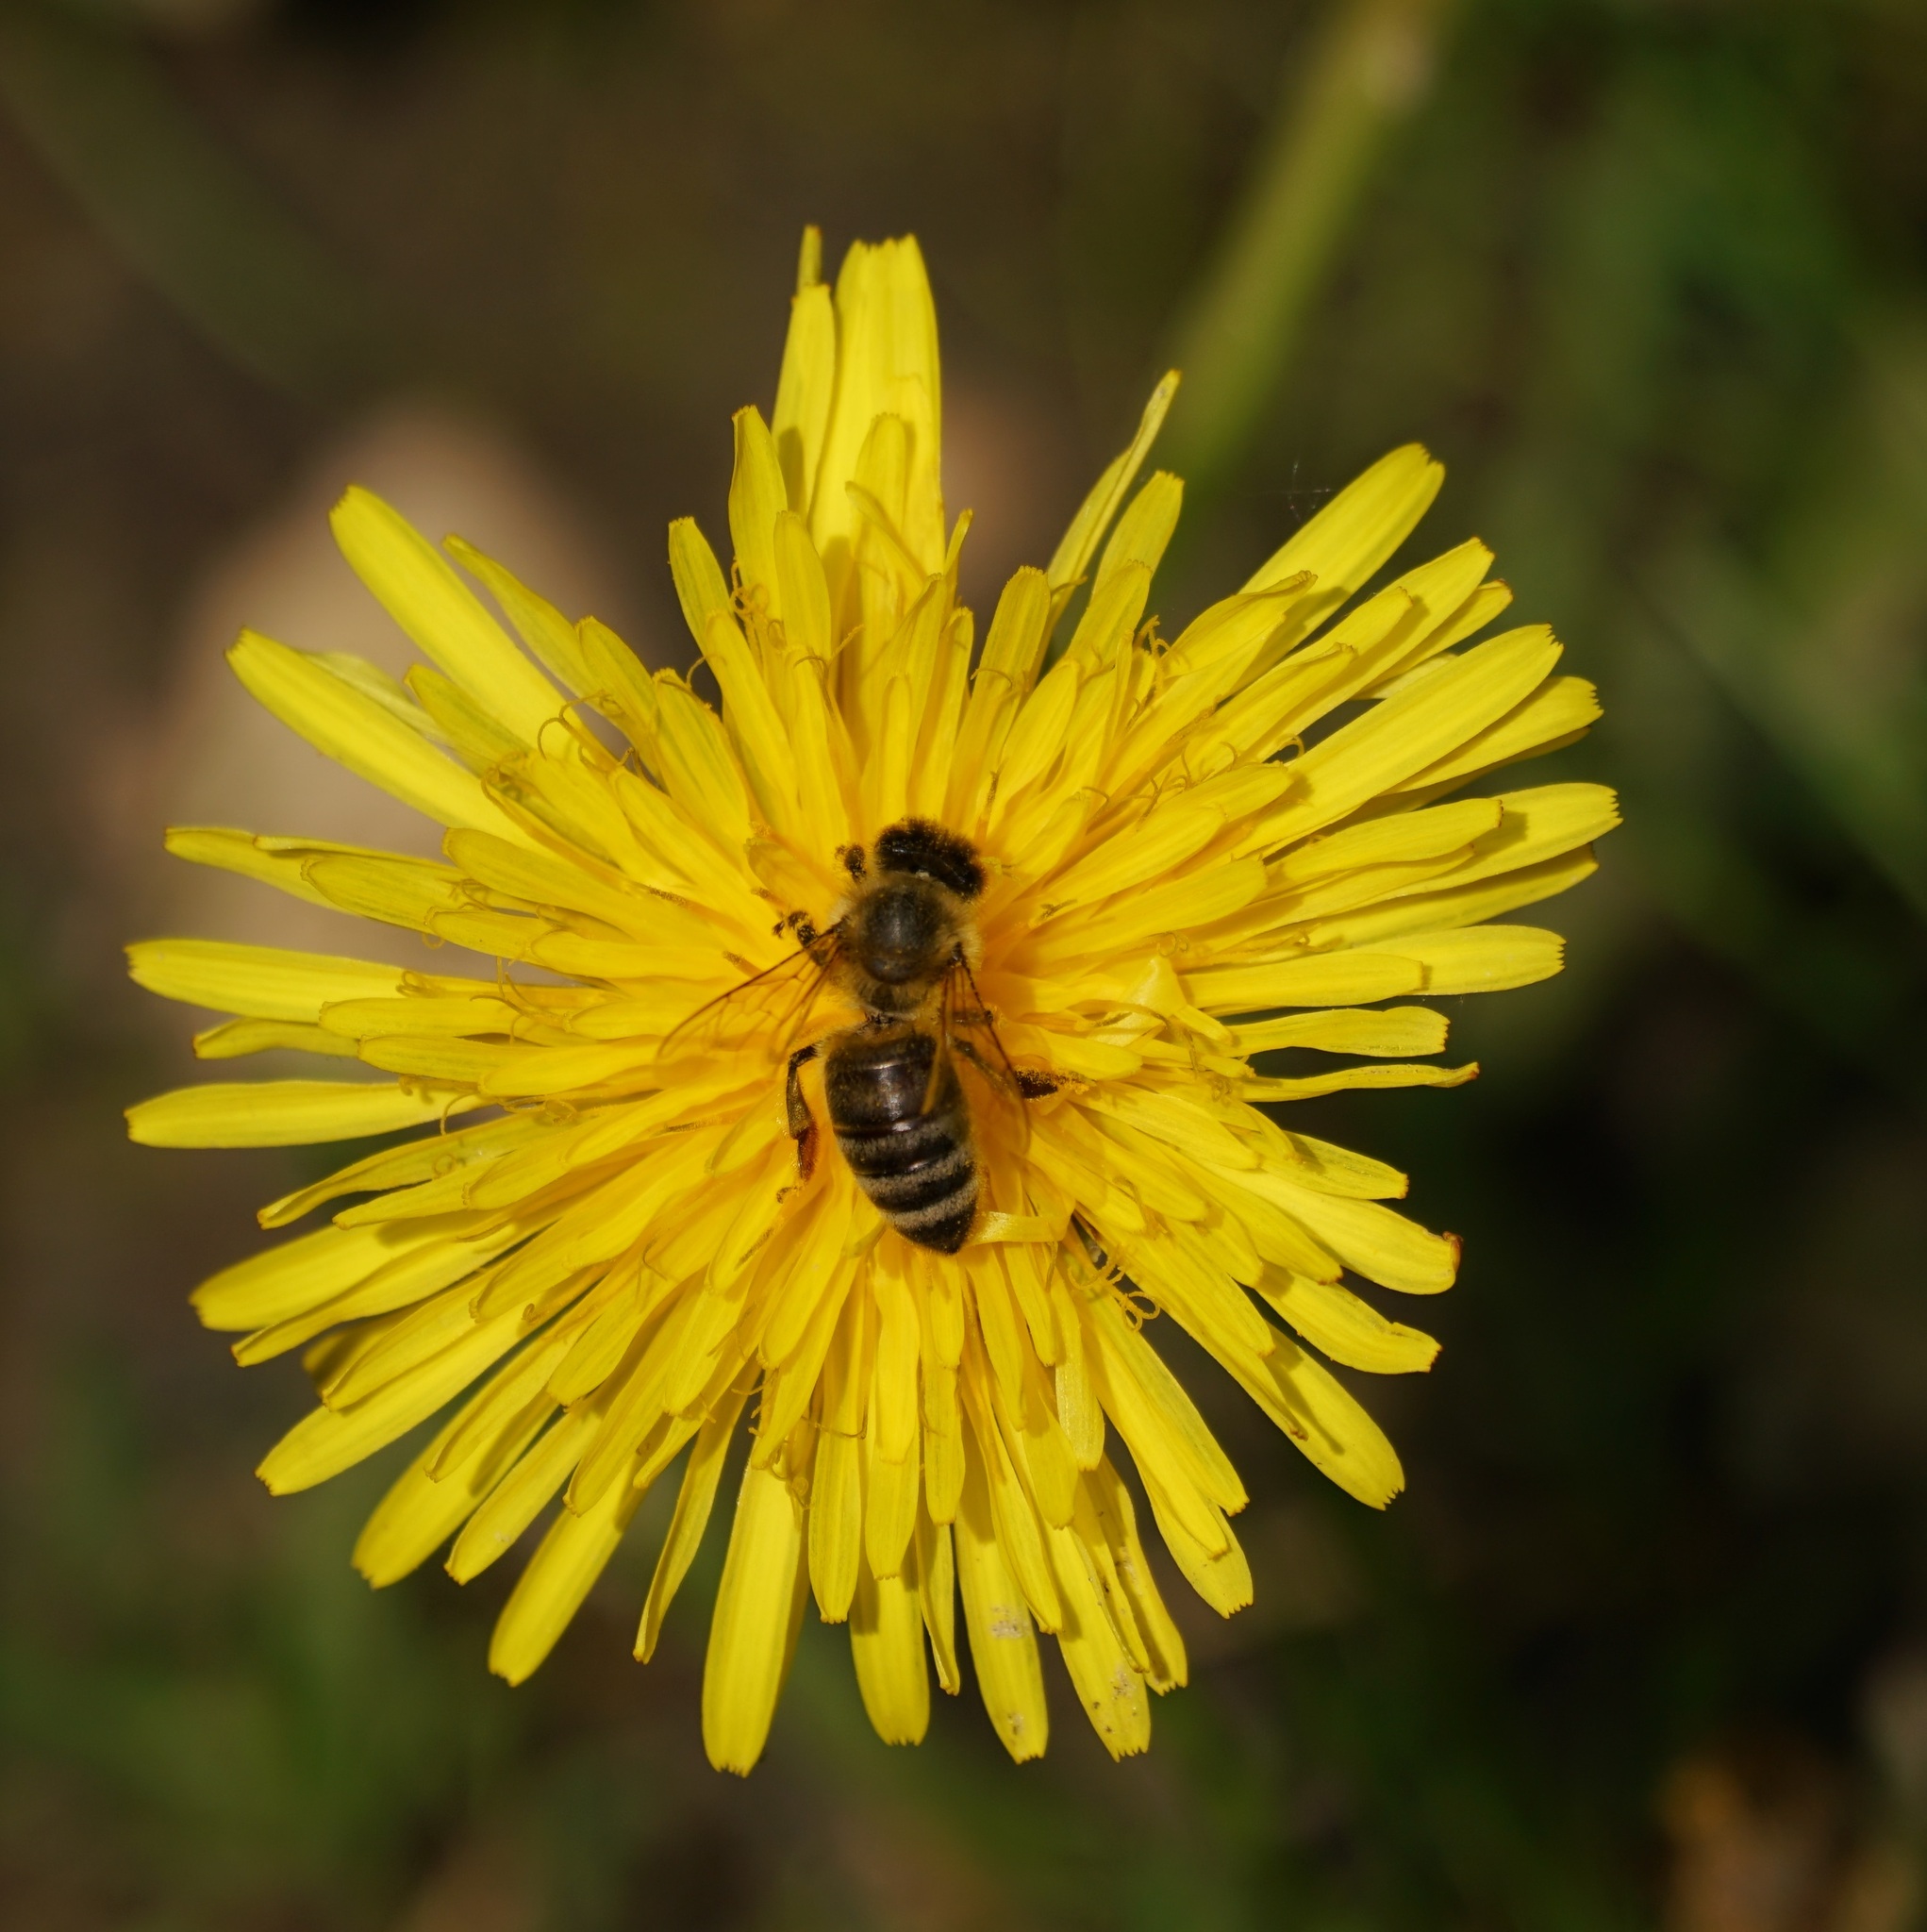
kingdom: Animalia
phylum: Arthropoda
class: Insecta
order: Hymenoptera
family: Apidae
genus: Apis
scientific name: Apis mellifera
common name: Honey bee
